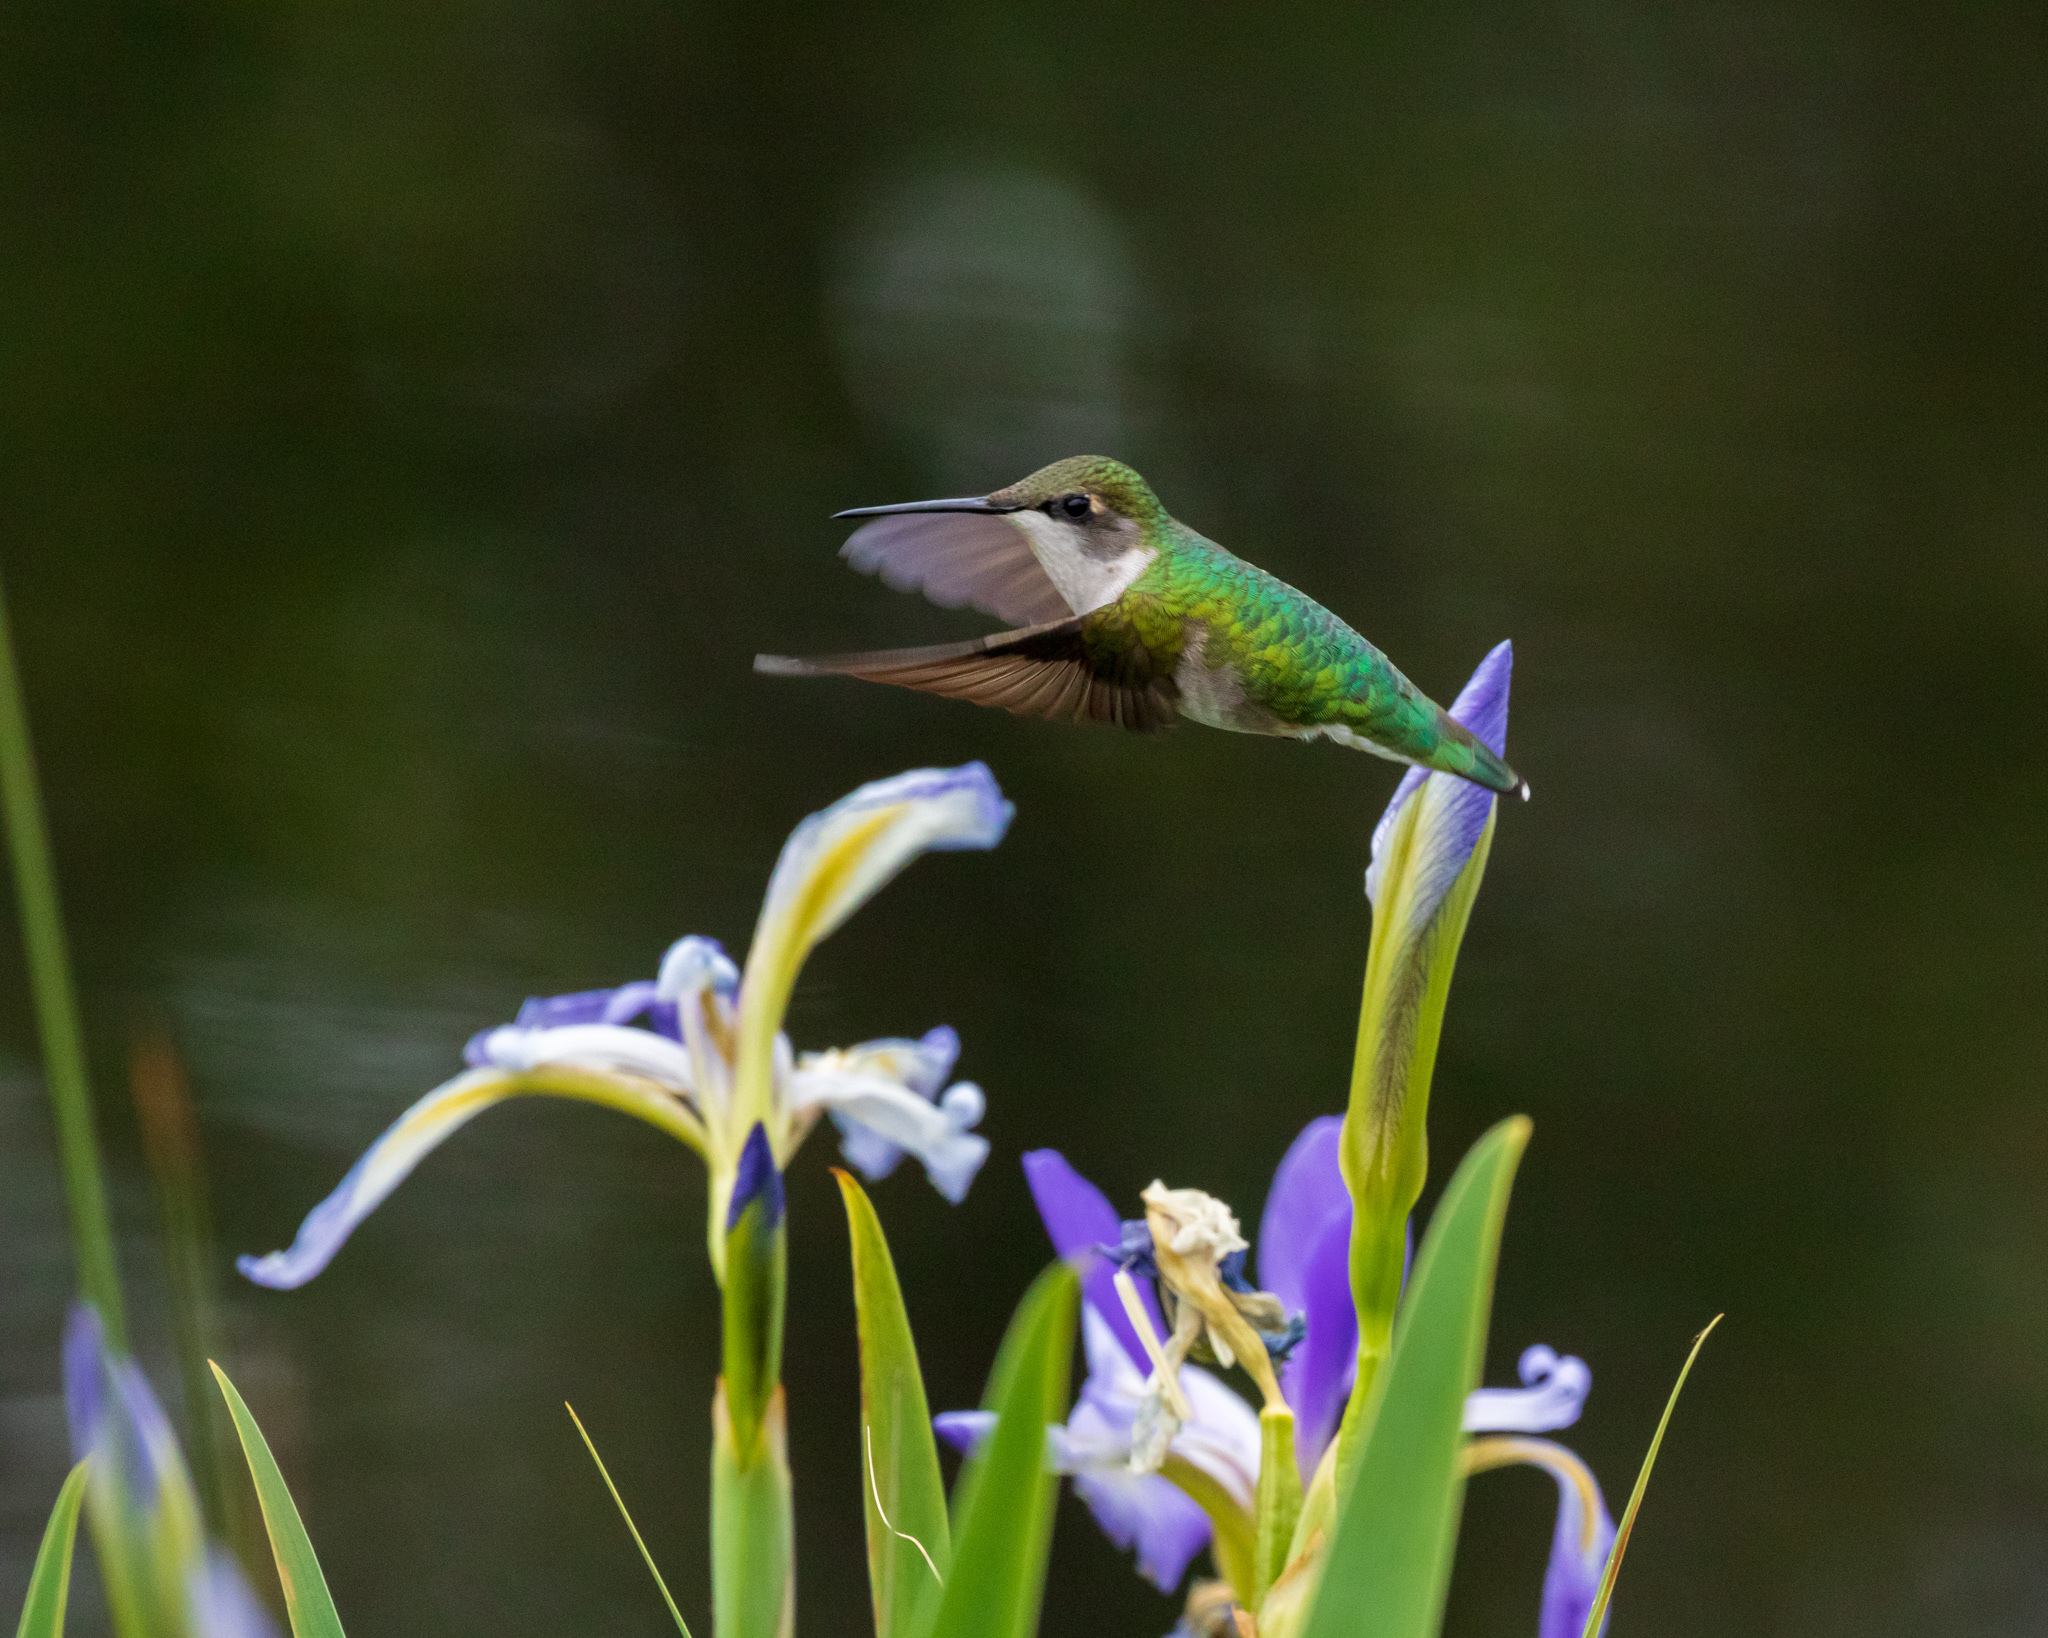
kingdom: Animalia
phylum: Chordata
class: Aves
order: Apodiformes
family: Trochilidae
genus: Archilochus
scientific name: Archilochus colubris
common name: Ruby-throated hummingbird
